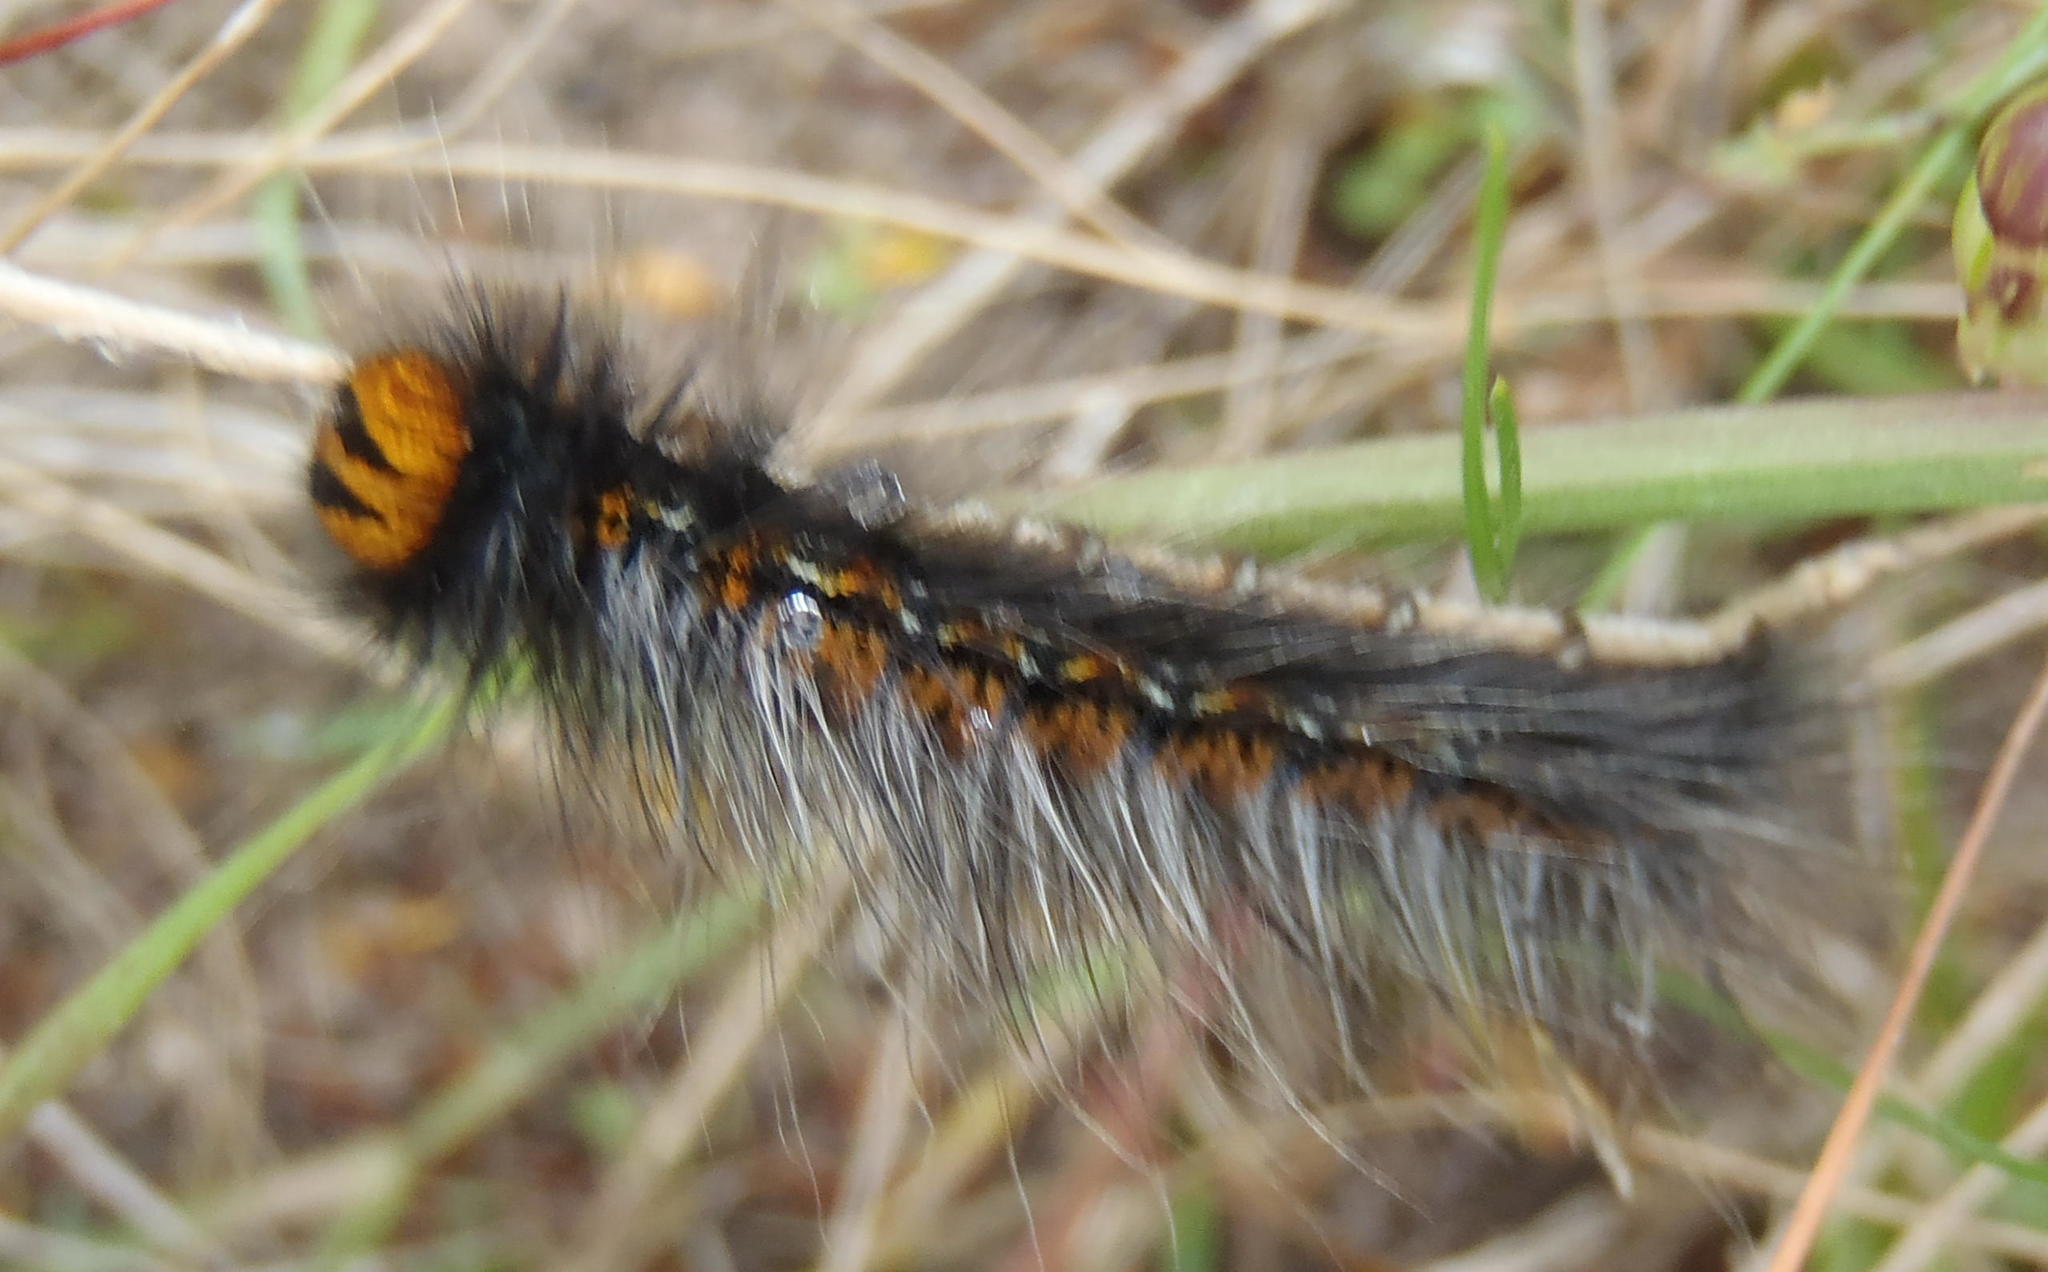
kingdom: Animalia
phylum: Arthropoda
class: Insecta
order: Lepidoptera
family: Lasiocampidae
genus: Mesocelis
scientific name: Mesocelis monticola
